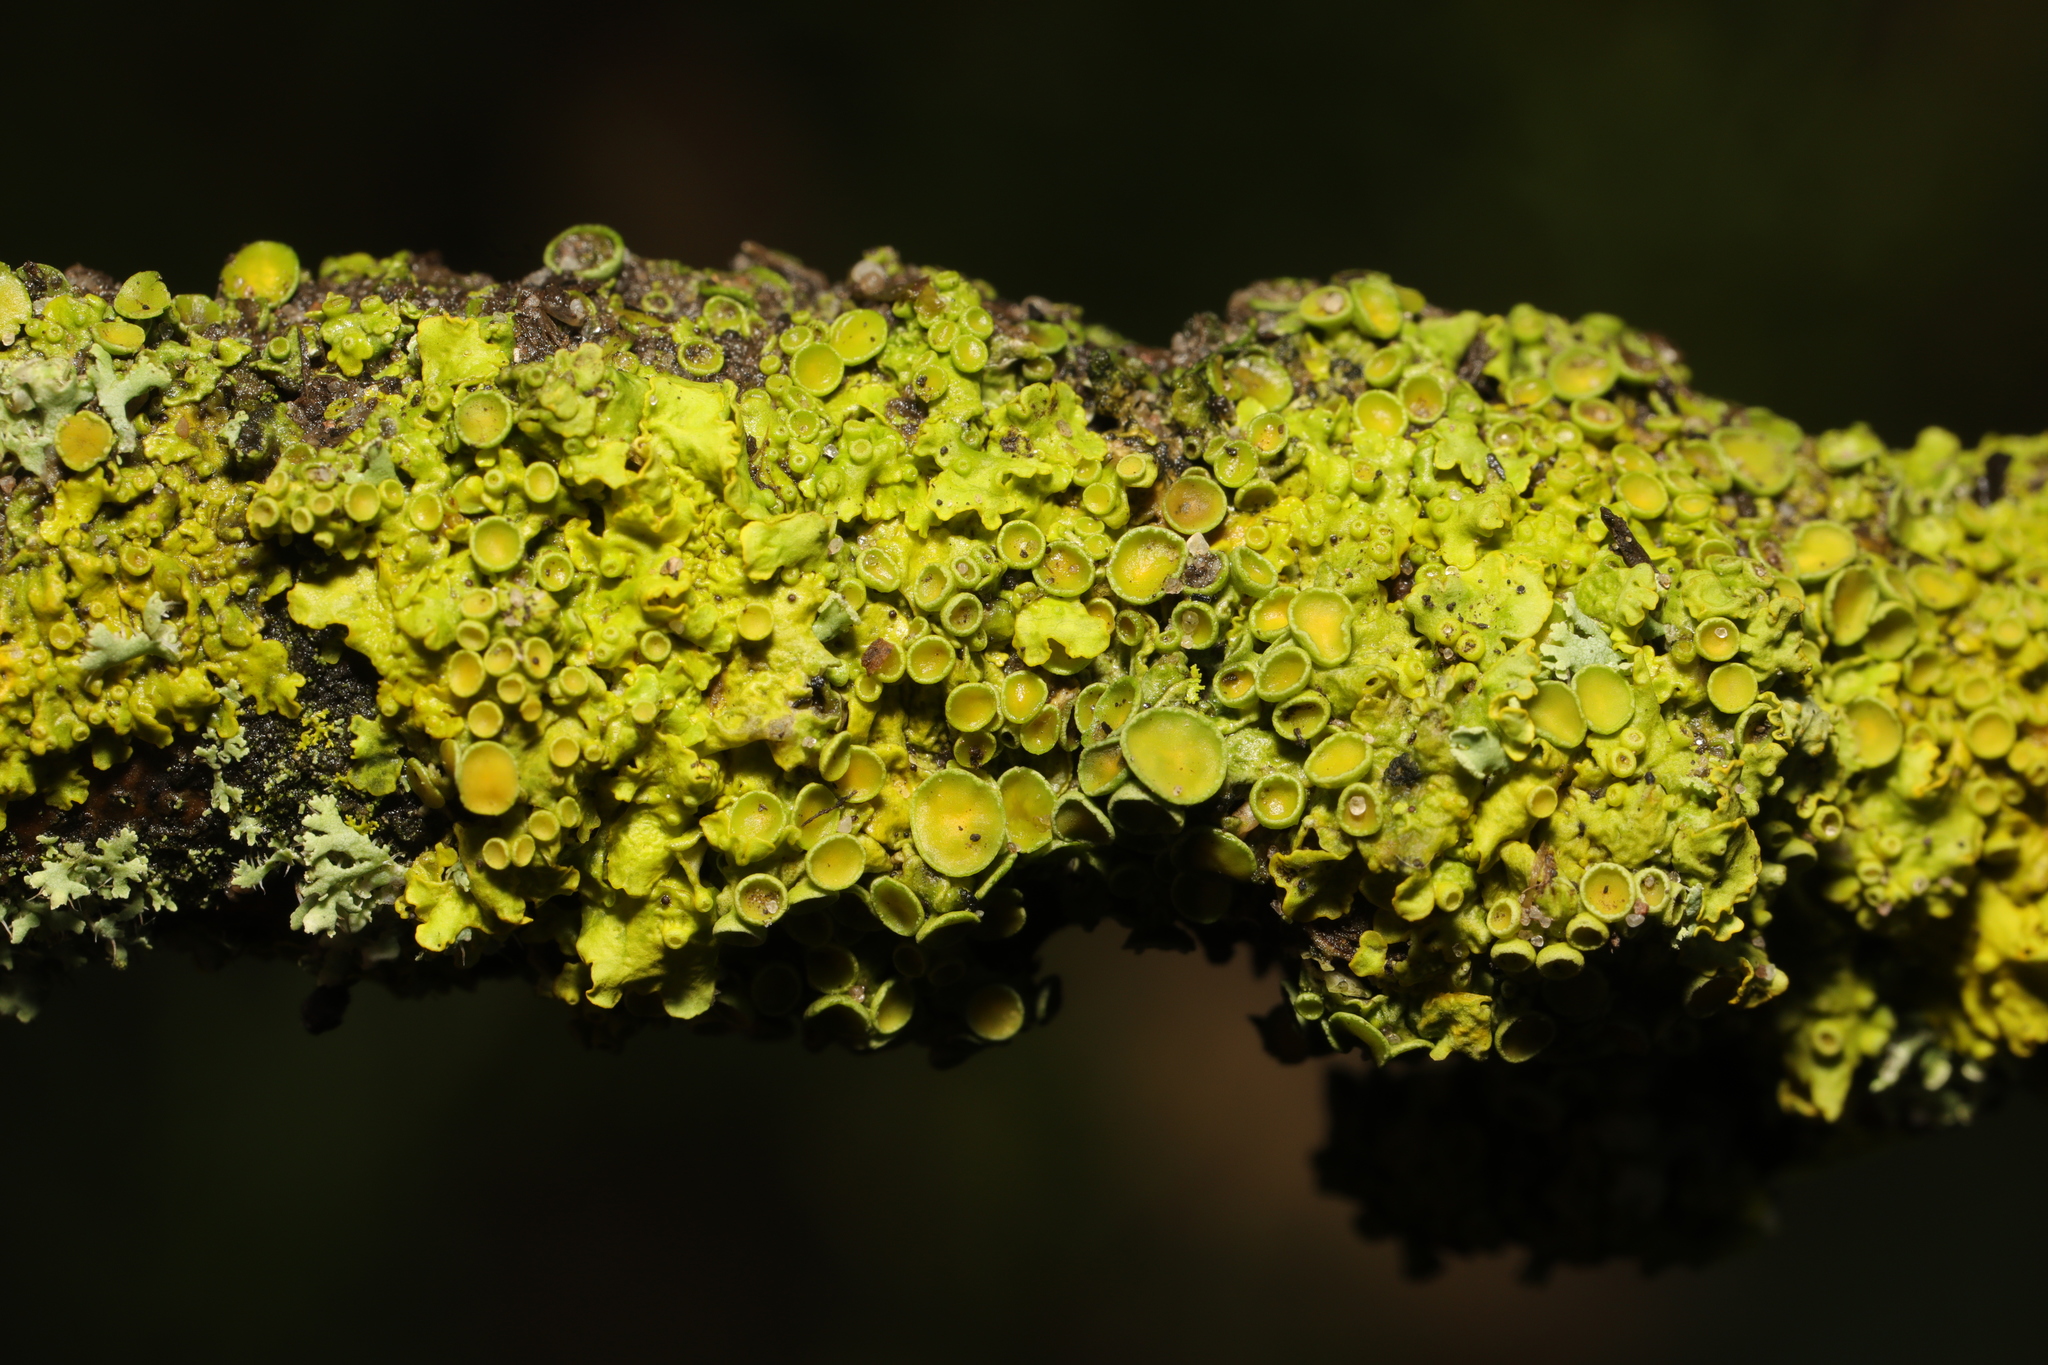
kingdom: Fungi
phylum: Ascomycota
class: Lecanoromycetes
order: Teloschistales
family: Teloschistaceae
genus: Xanthoria
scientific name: Xanthoria parietina
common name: Common orange lichen
